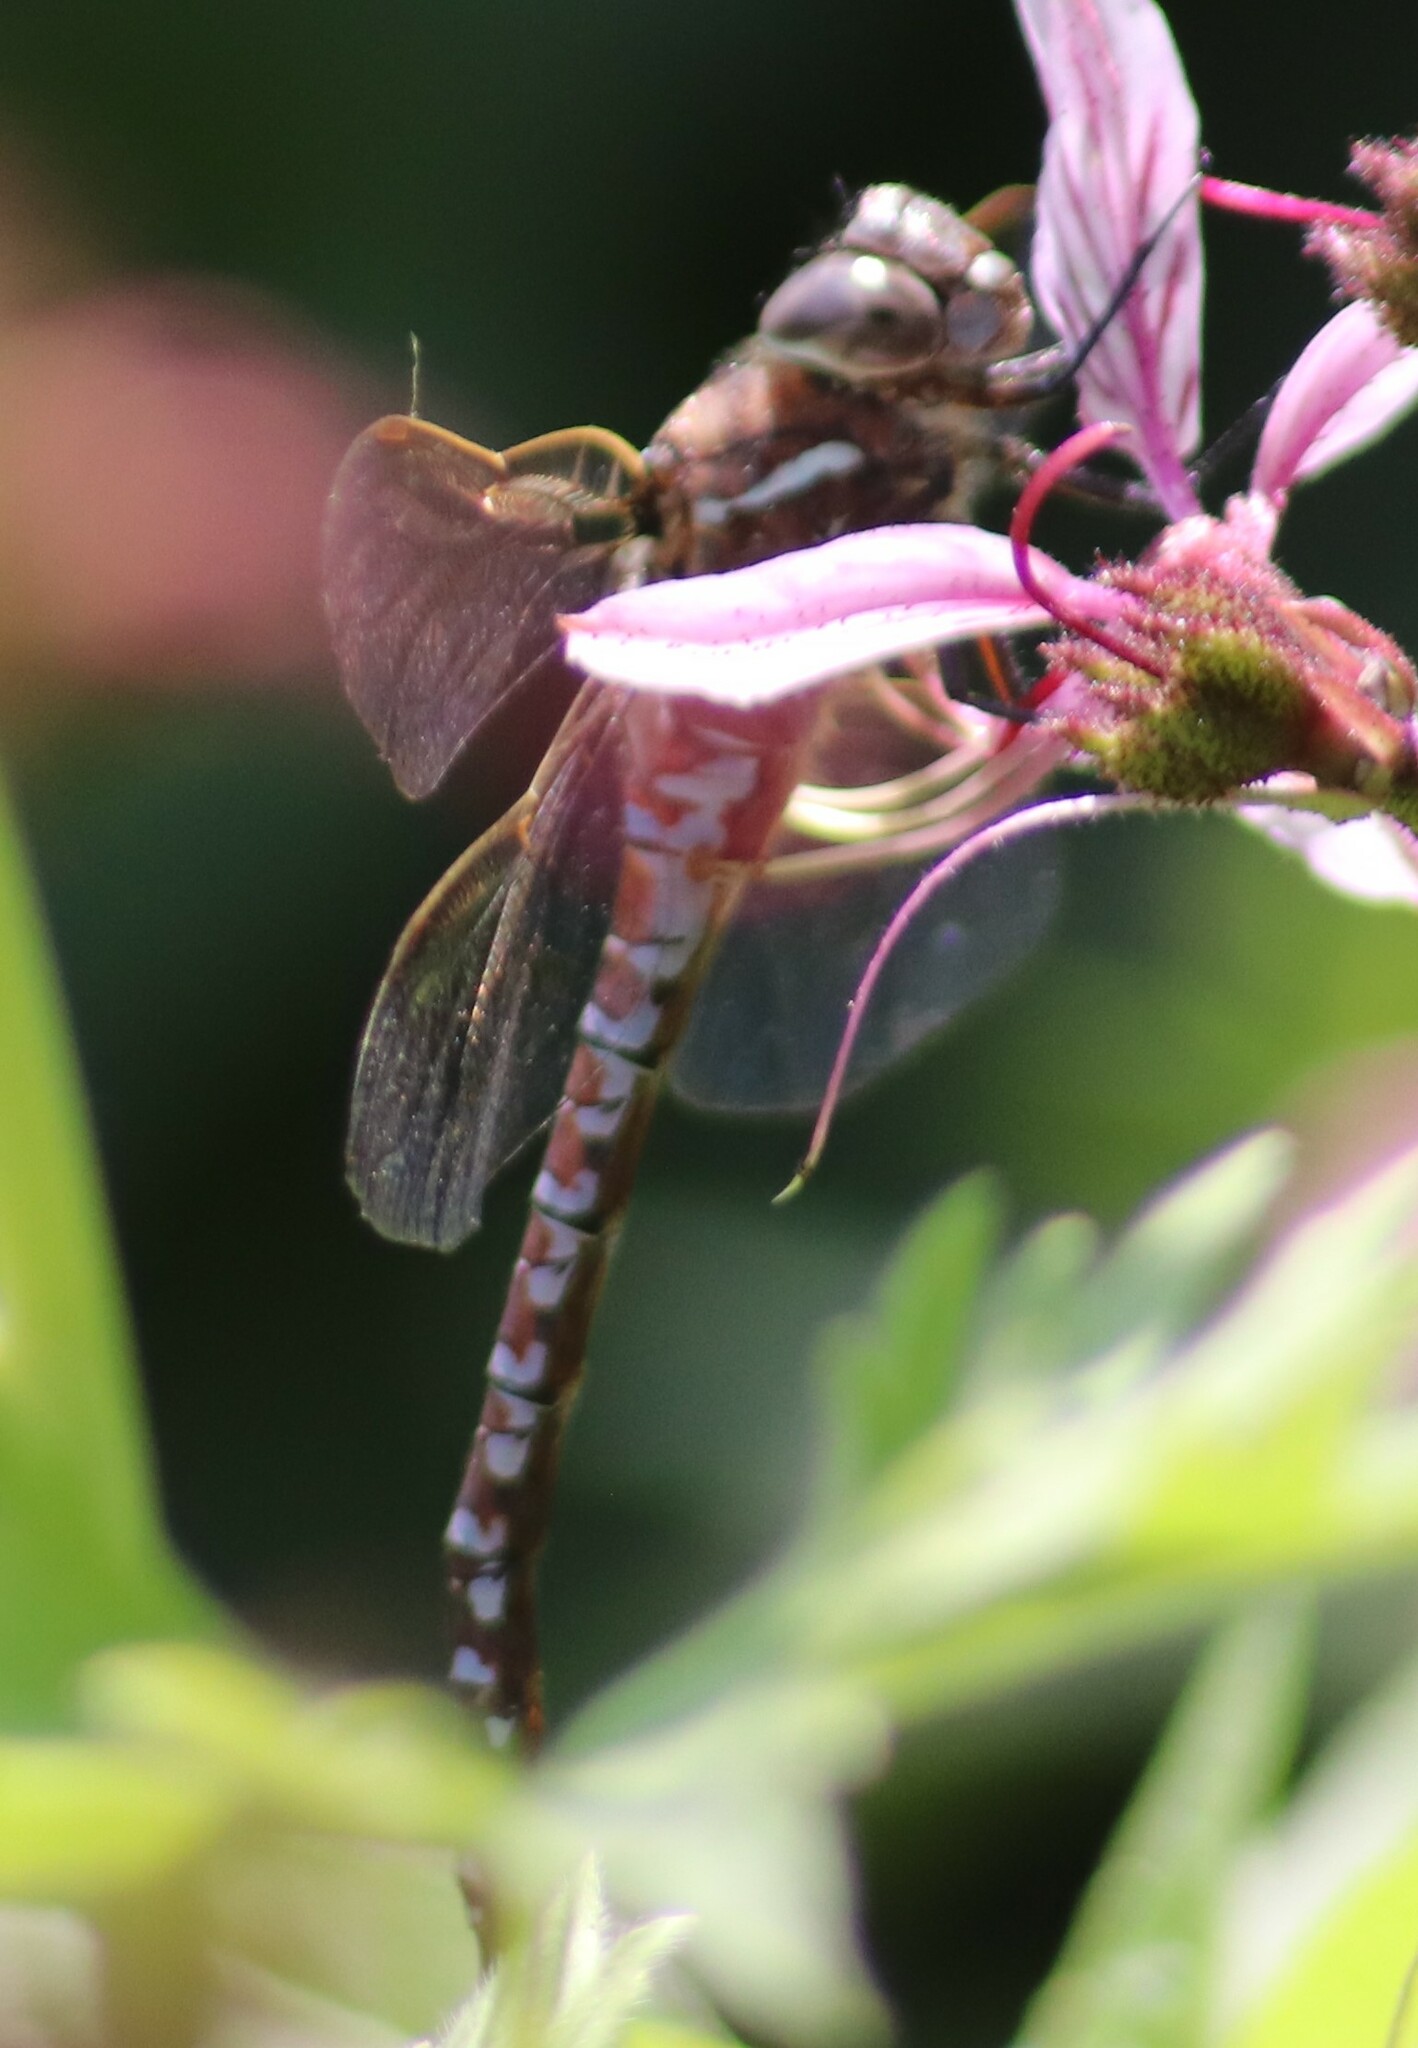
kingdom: Animalia
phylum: Arthropoda
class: Insecta
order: Odonata
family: Aeshnidae
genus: Aeshna
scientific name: Aeshna interrupta
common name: Variable darner
